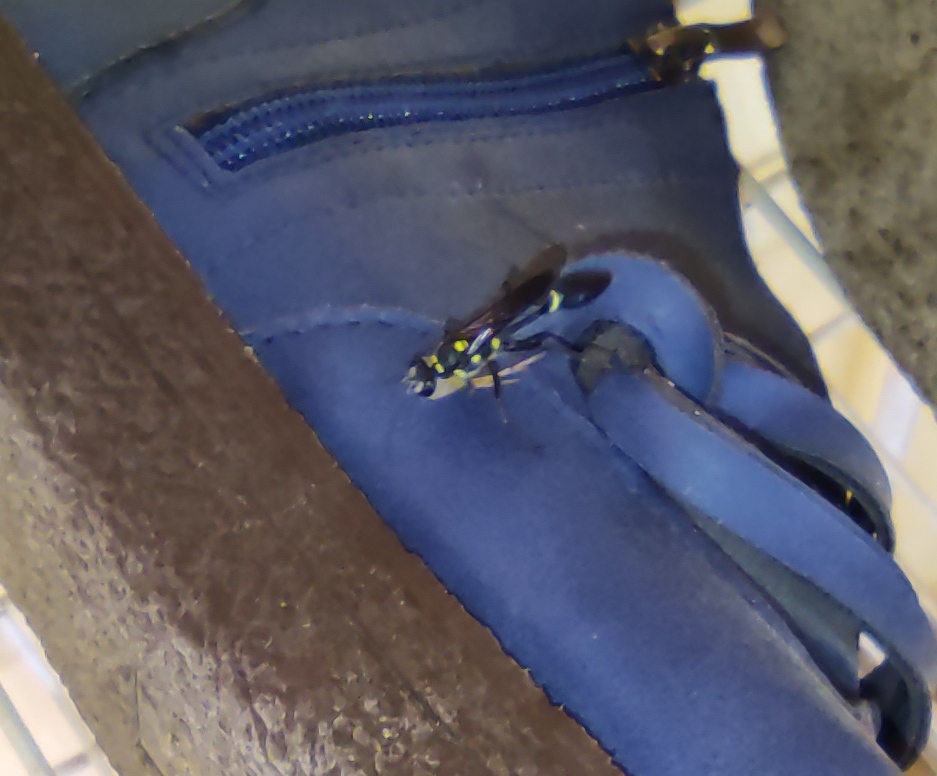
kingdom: Animalia
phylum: Arthropoda
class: Insecta
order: Hymenoptera
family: Sphecidae
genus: Sceliphron
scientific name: Sceliphron argentifrons
